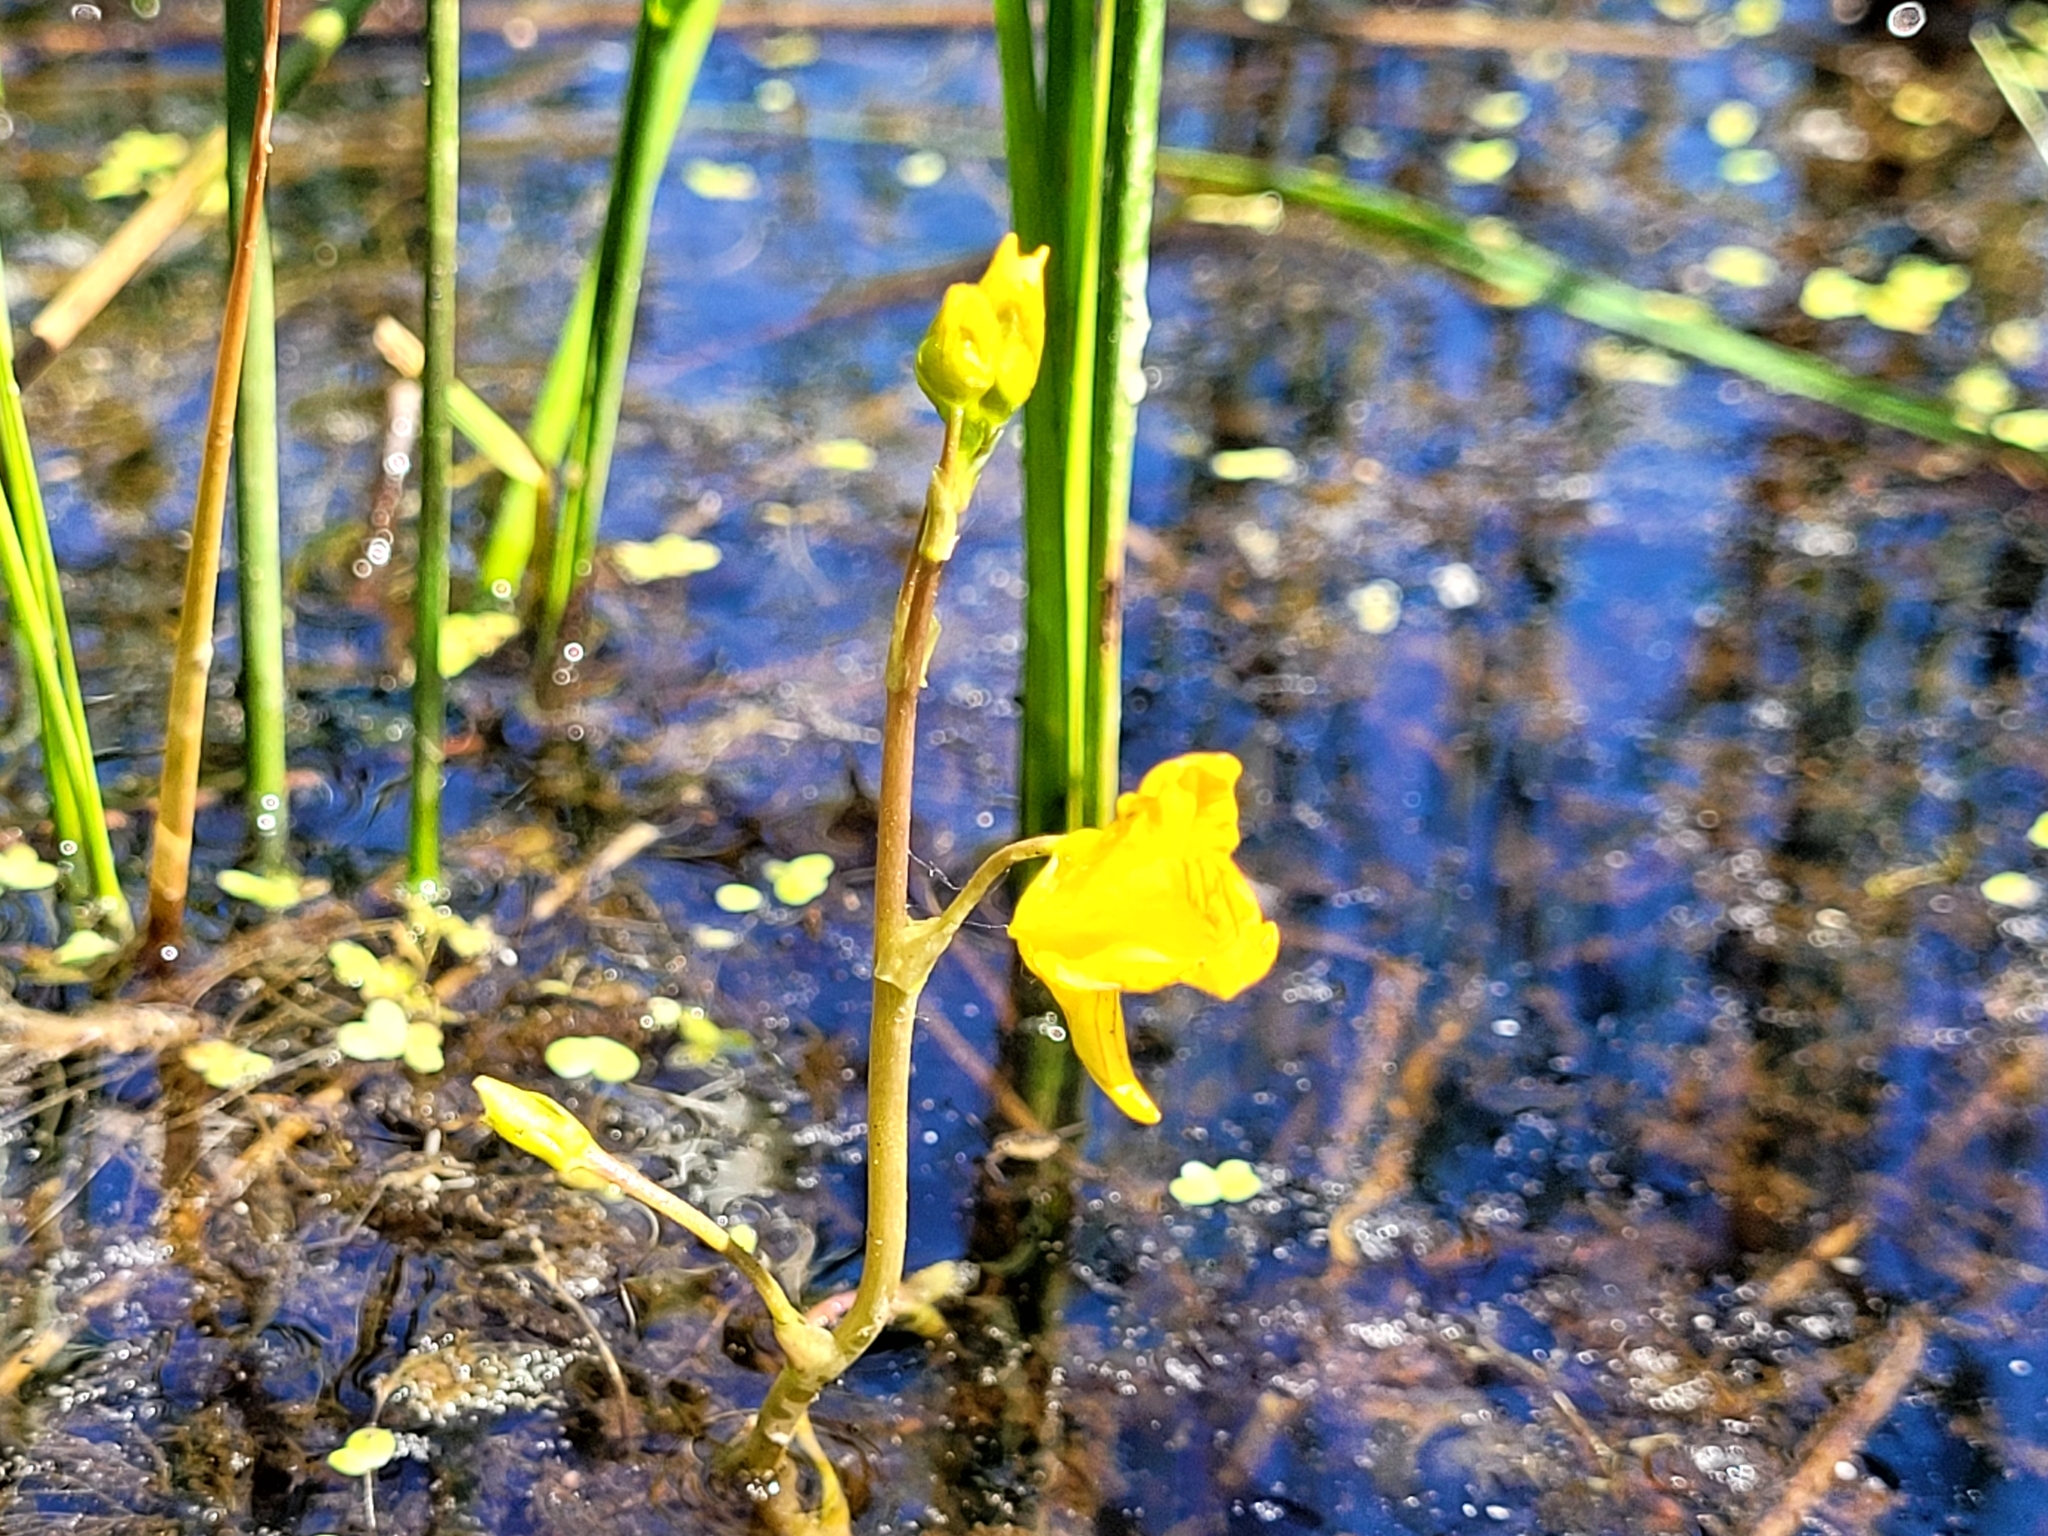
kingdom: Plantae
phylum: Tracheophyta
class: Magnoliopsida
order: Lamiales
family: Lentibulariaceae
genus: Utricularia
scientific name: Utricularia macrorhiza
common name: Common bladderwort
